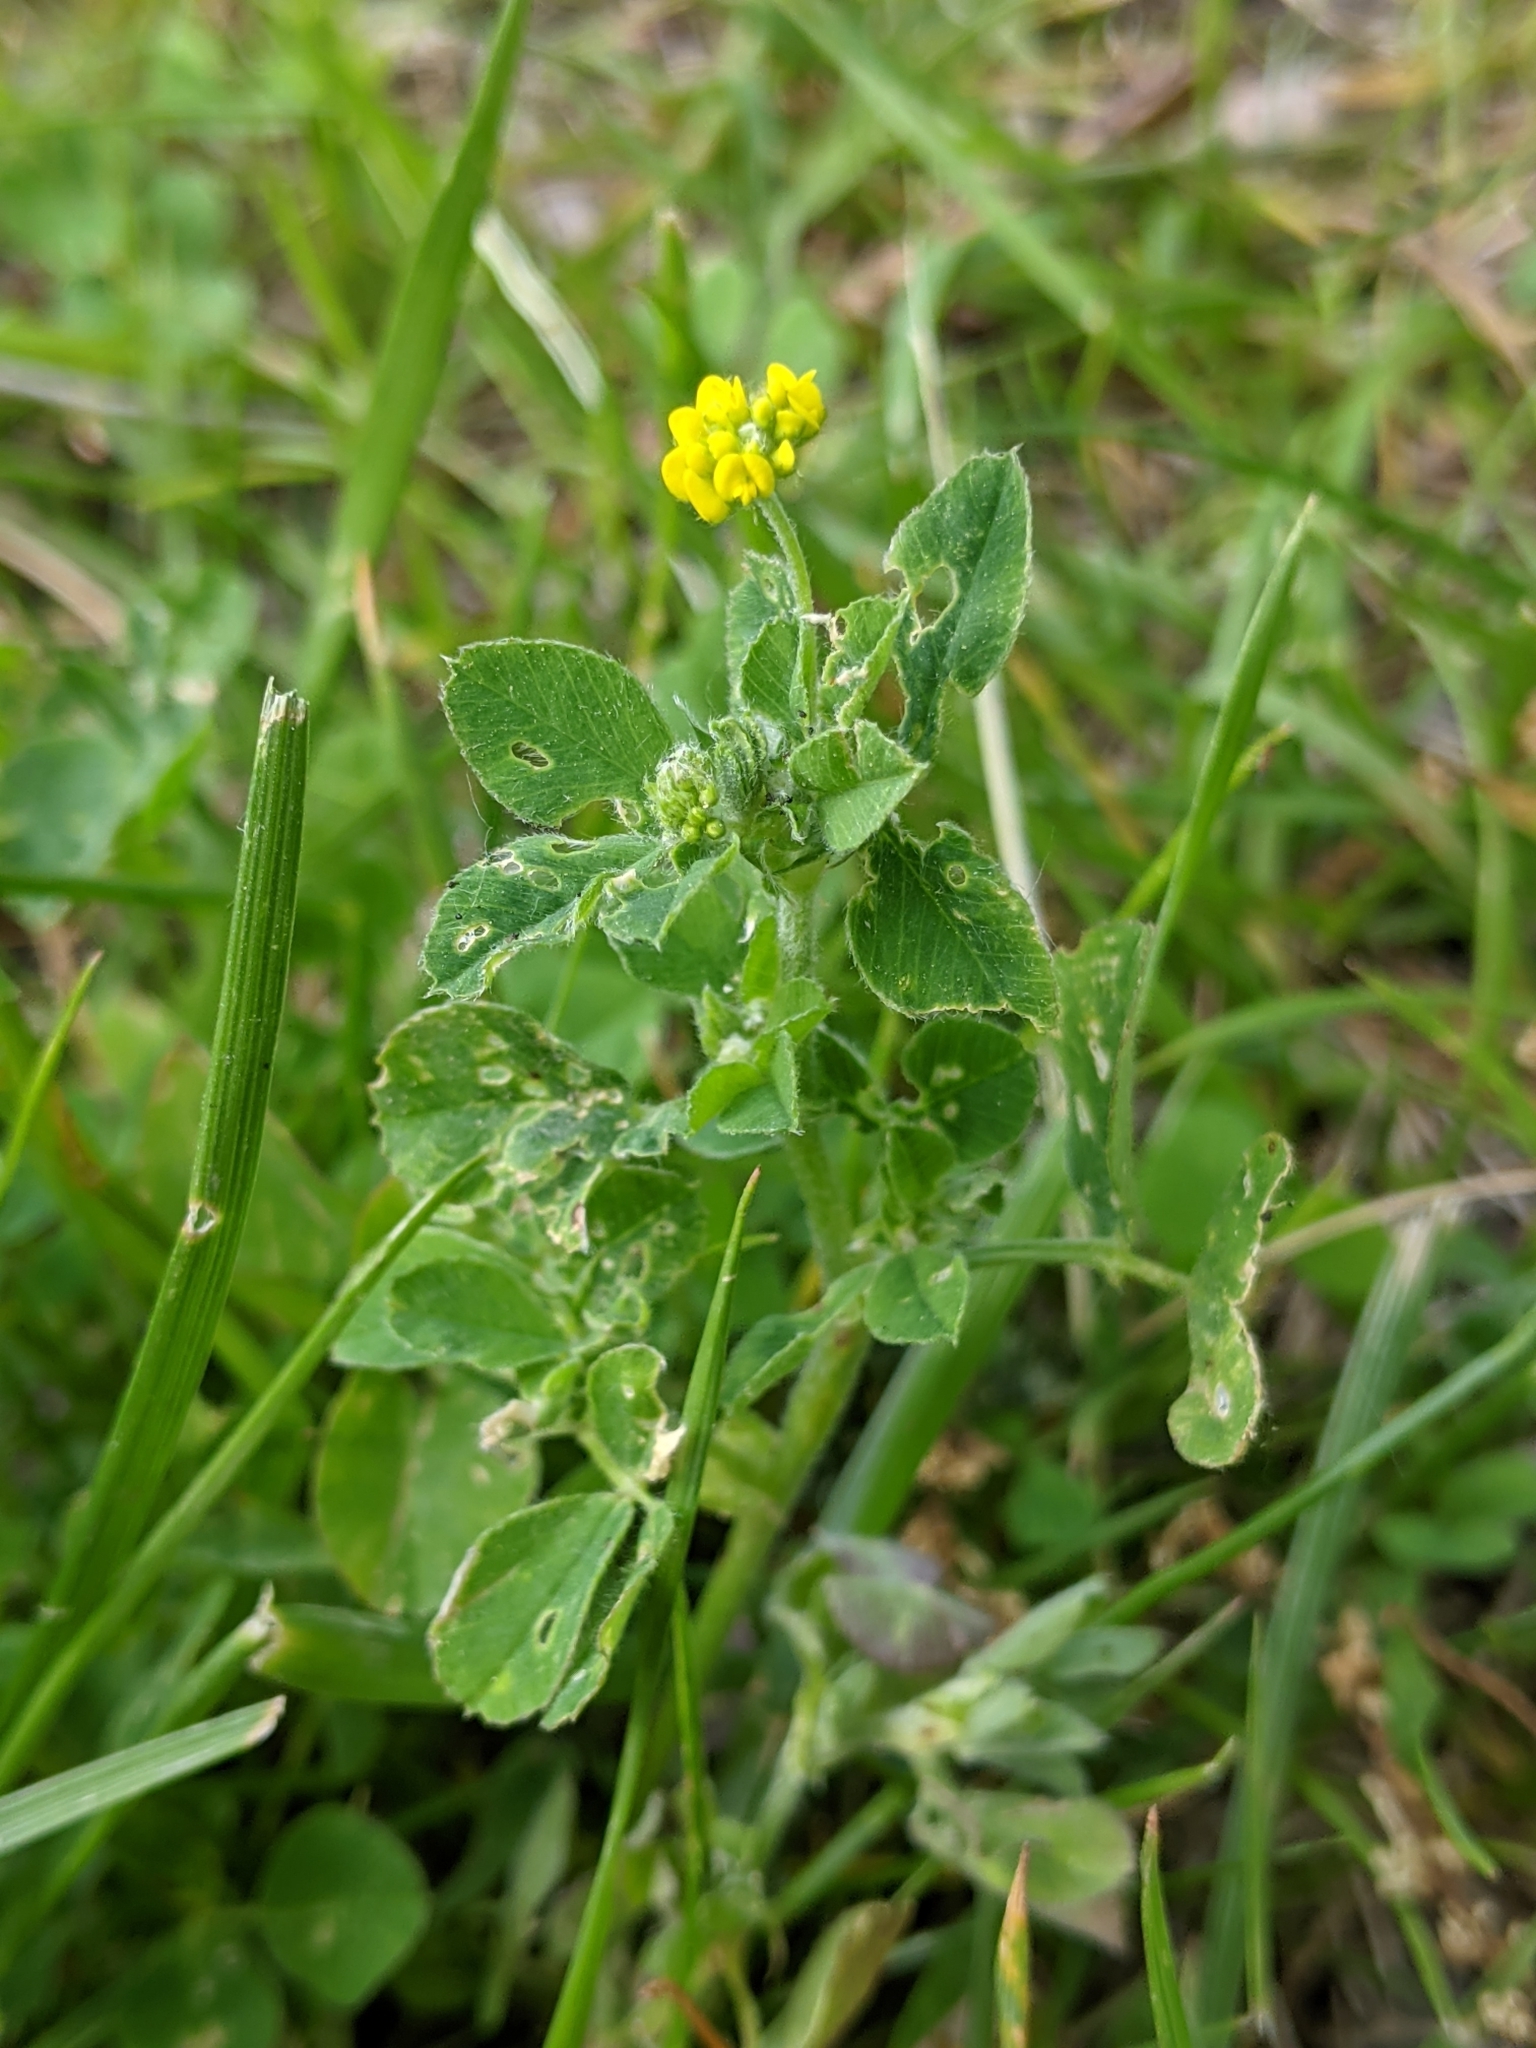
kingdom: Plantae
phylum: Tracheophyta
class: Magnoliopsida
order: Fabales
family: Fabaceae
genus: Medicago
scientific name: Medicago lupulina
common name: Black medick
